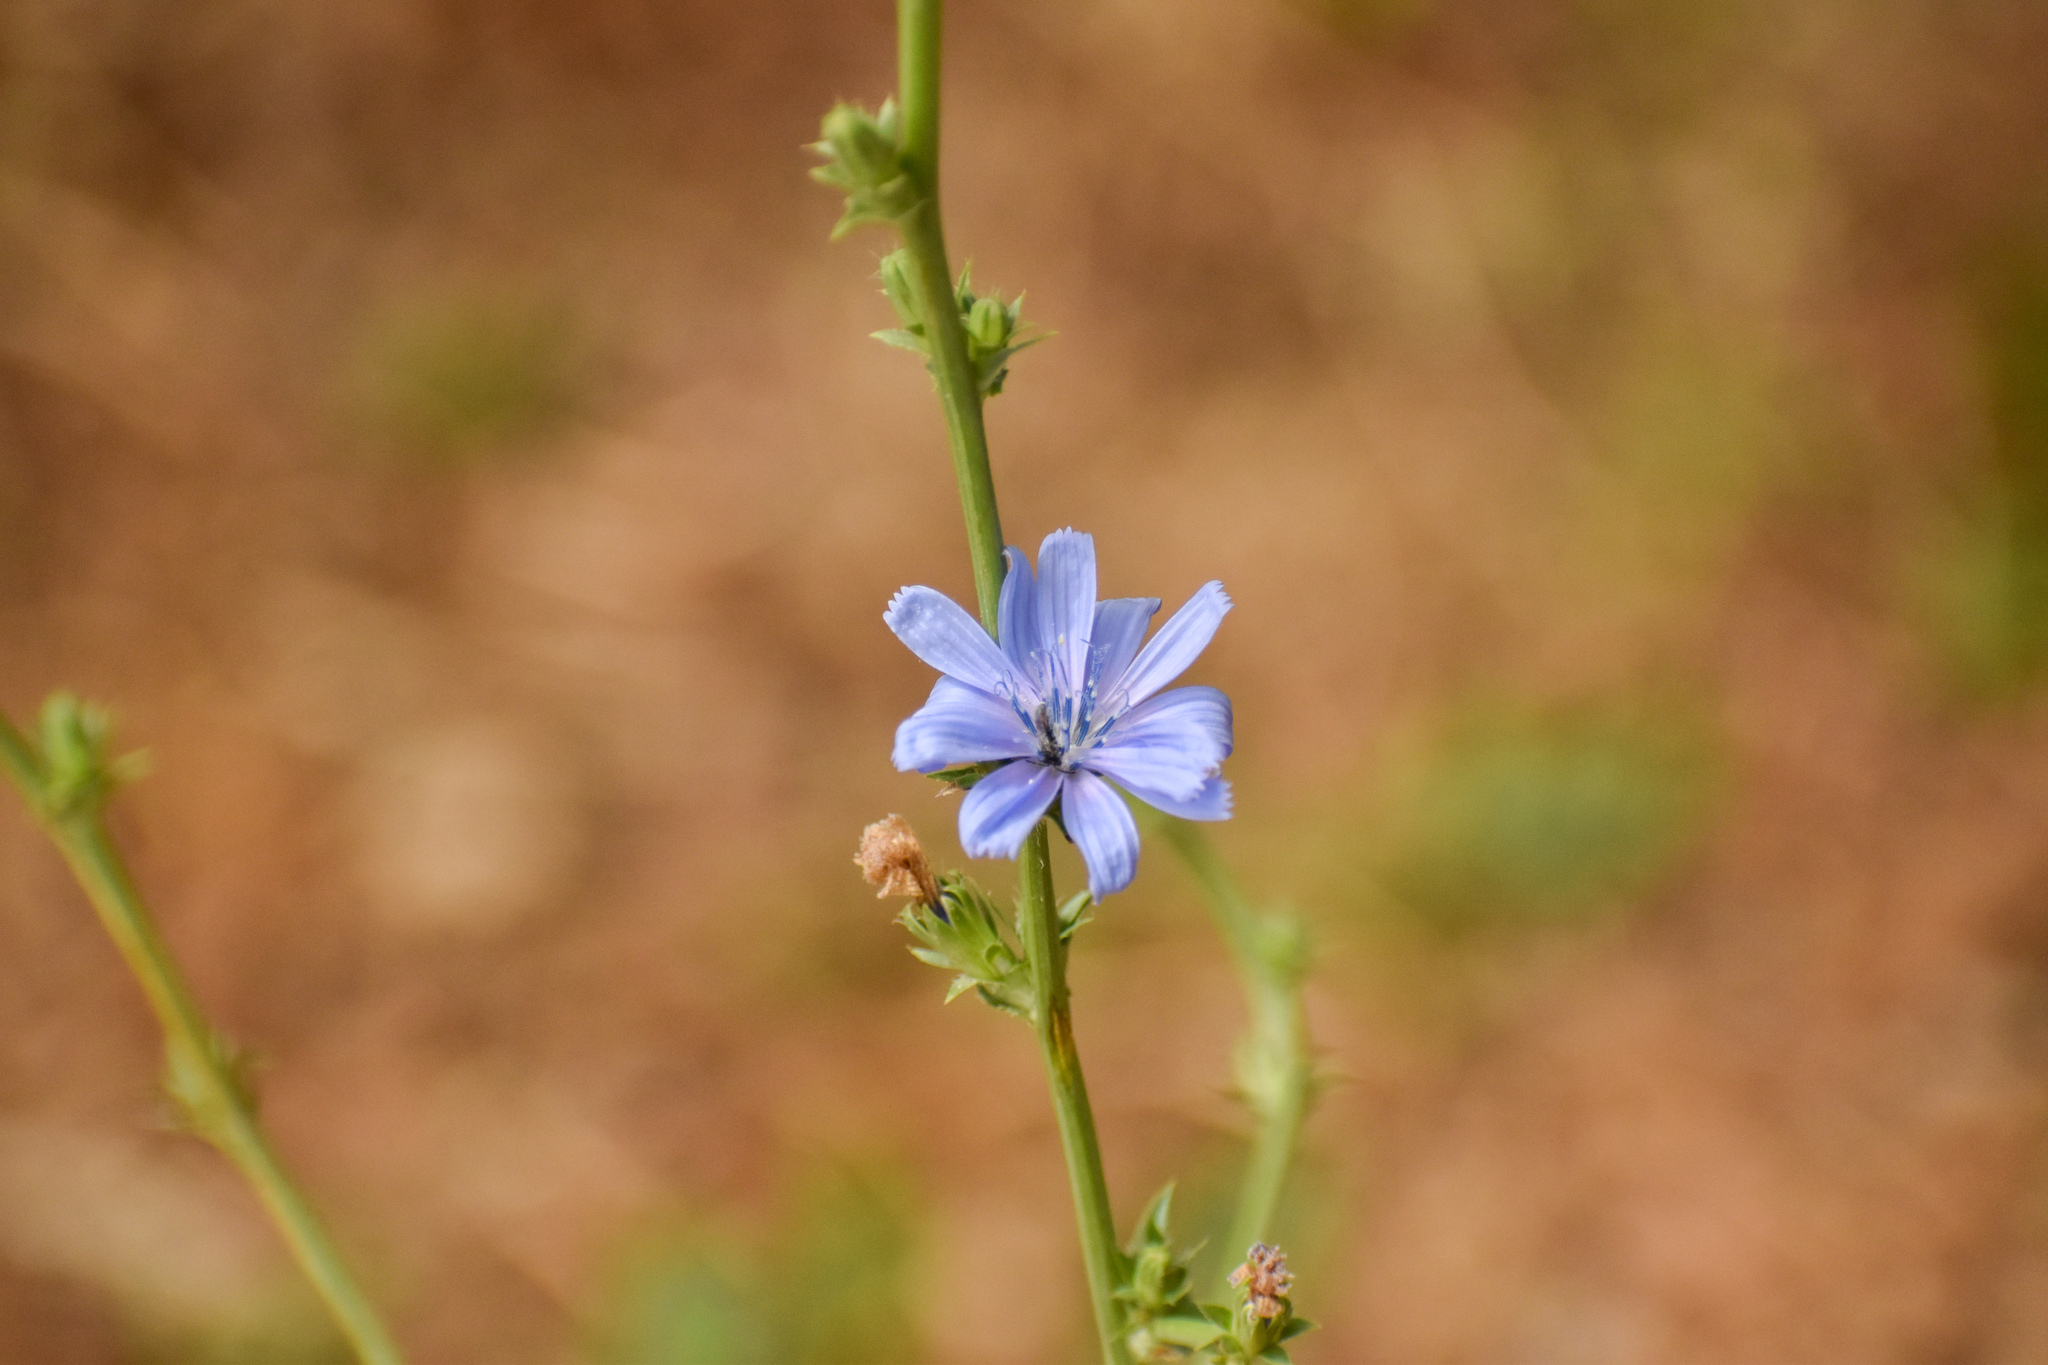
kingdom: Plantae
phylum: Tracheophyta
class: Magnoliopsida
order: Asterales
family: Asteraceae
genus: Cichorium
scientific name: Cichorium intybus
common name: Chicory
